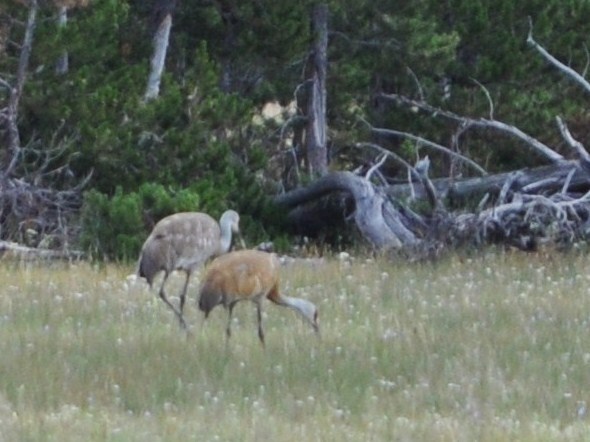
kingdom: Animalia
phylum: Chordata
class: Aves
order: Gruiformes
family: Gruidae
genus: Grus
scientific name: Grus canadensis
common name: Sandhill crane
